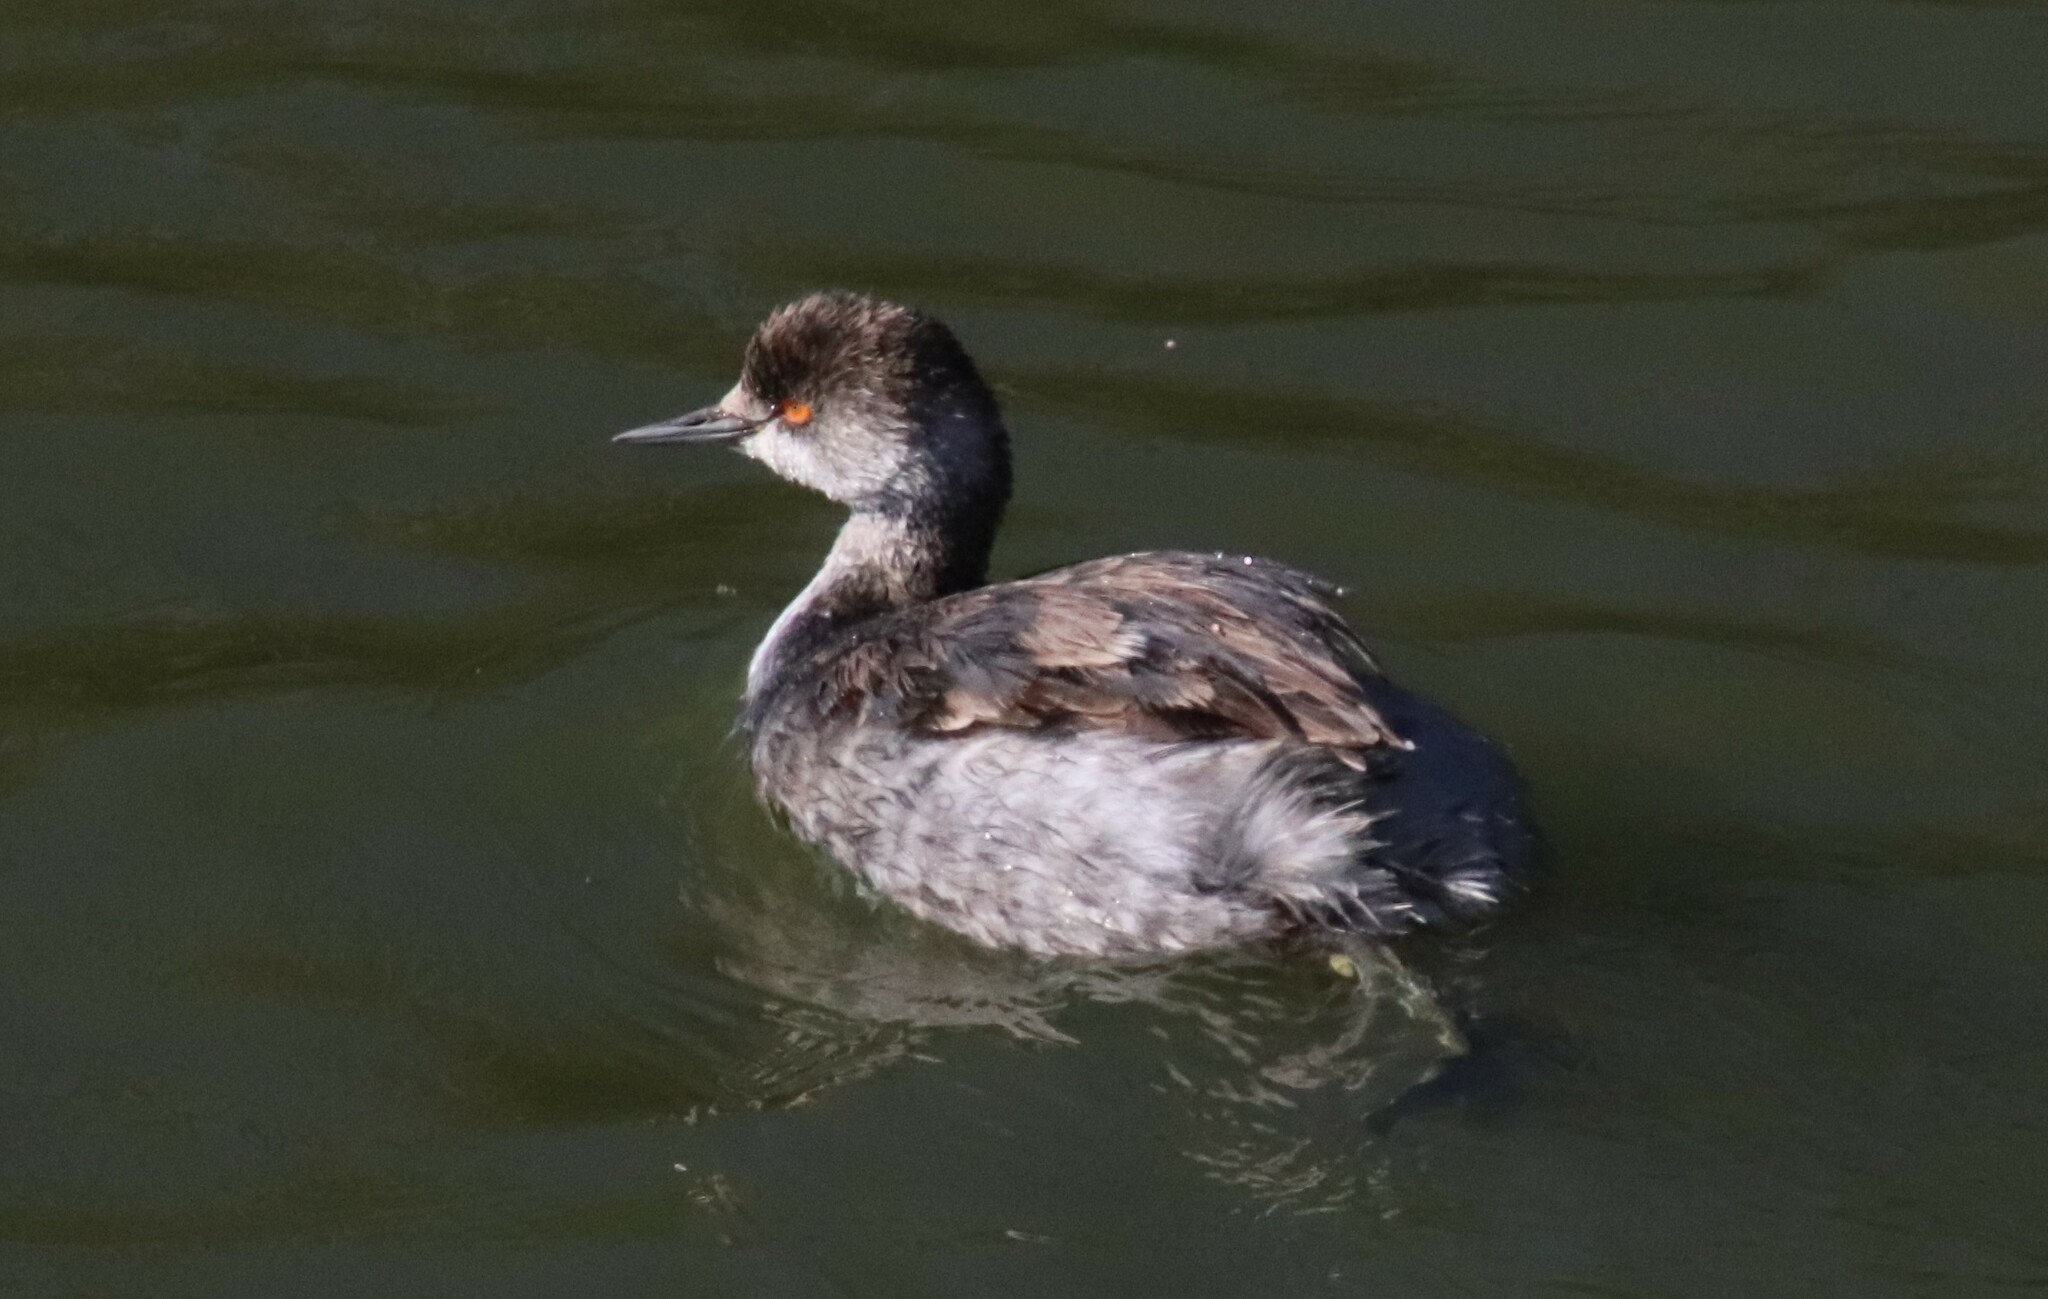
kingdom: Animalia
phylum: Chordata
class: Aves
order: Podicipediformes
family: Podicipedidae
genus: Podiceps
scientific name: Podiceps nigricollis
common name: Black-necked grebe
